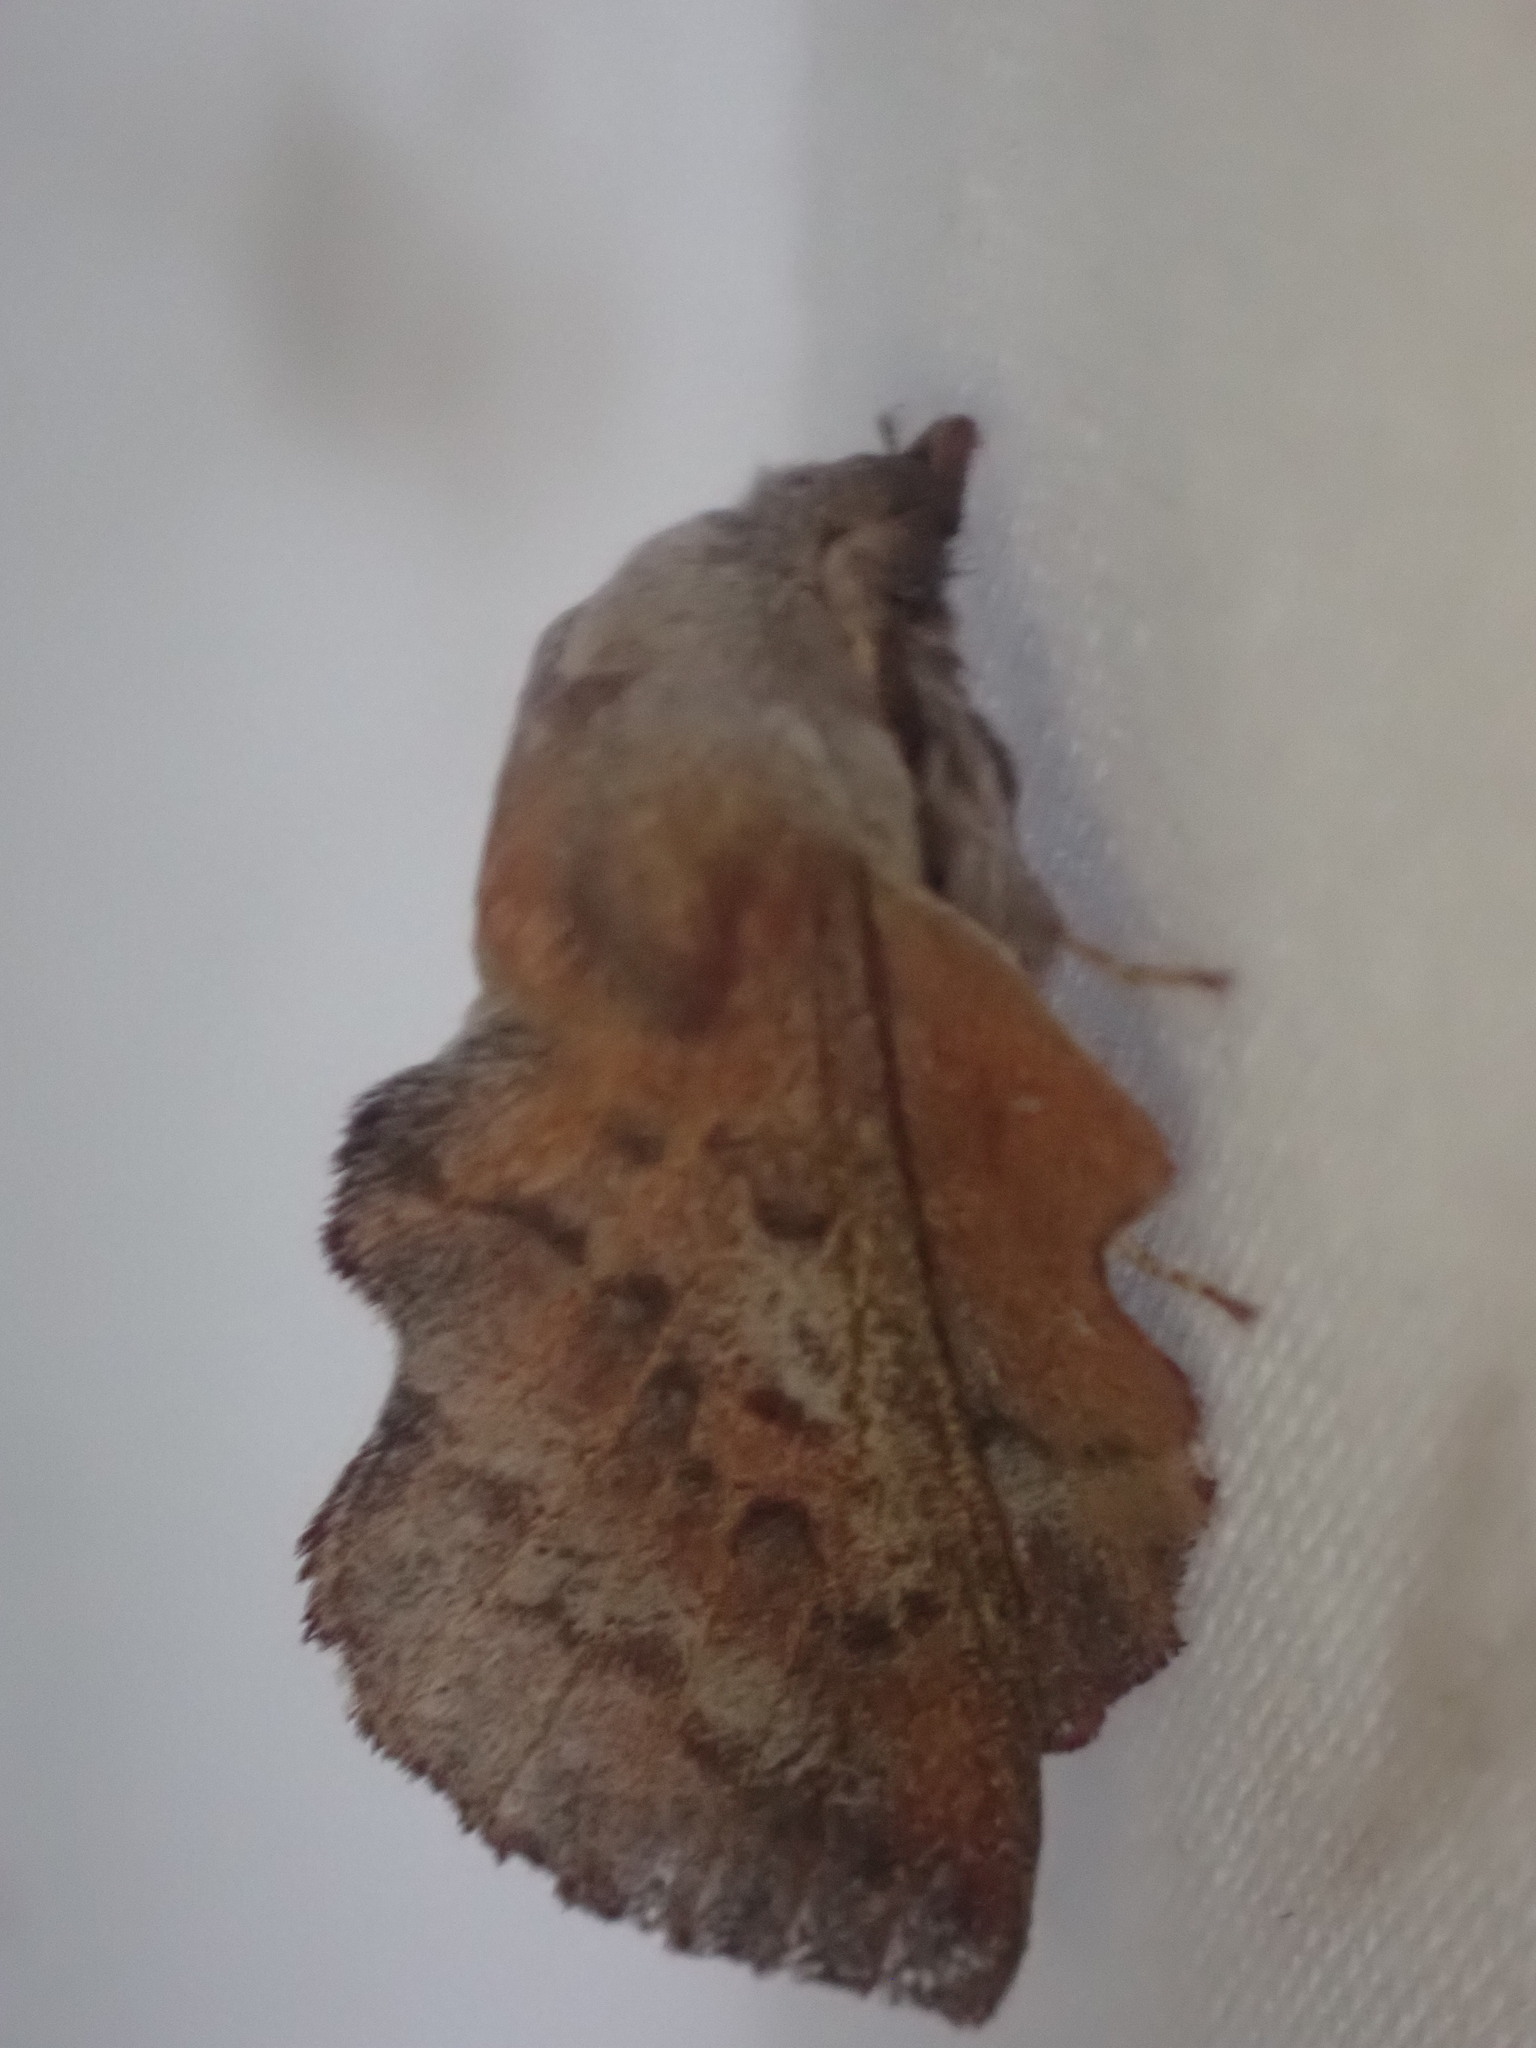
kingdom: Animalia
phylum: Arthropoda
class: Insecta
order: Lepidoptera
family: Lasiocampidae
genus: Phyllodesma
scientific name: Phyllodesma americana
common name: American lappet moth
